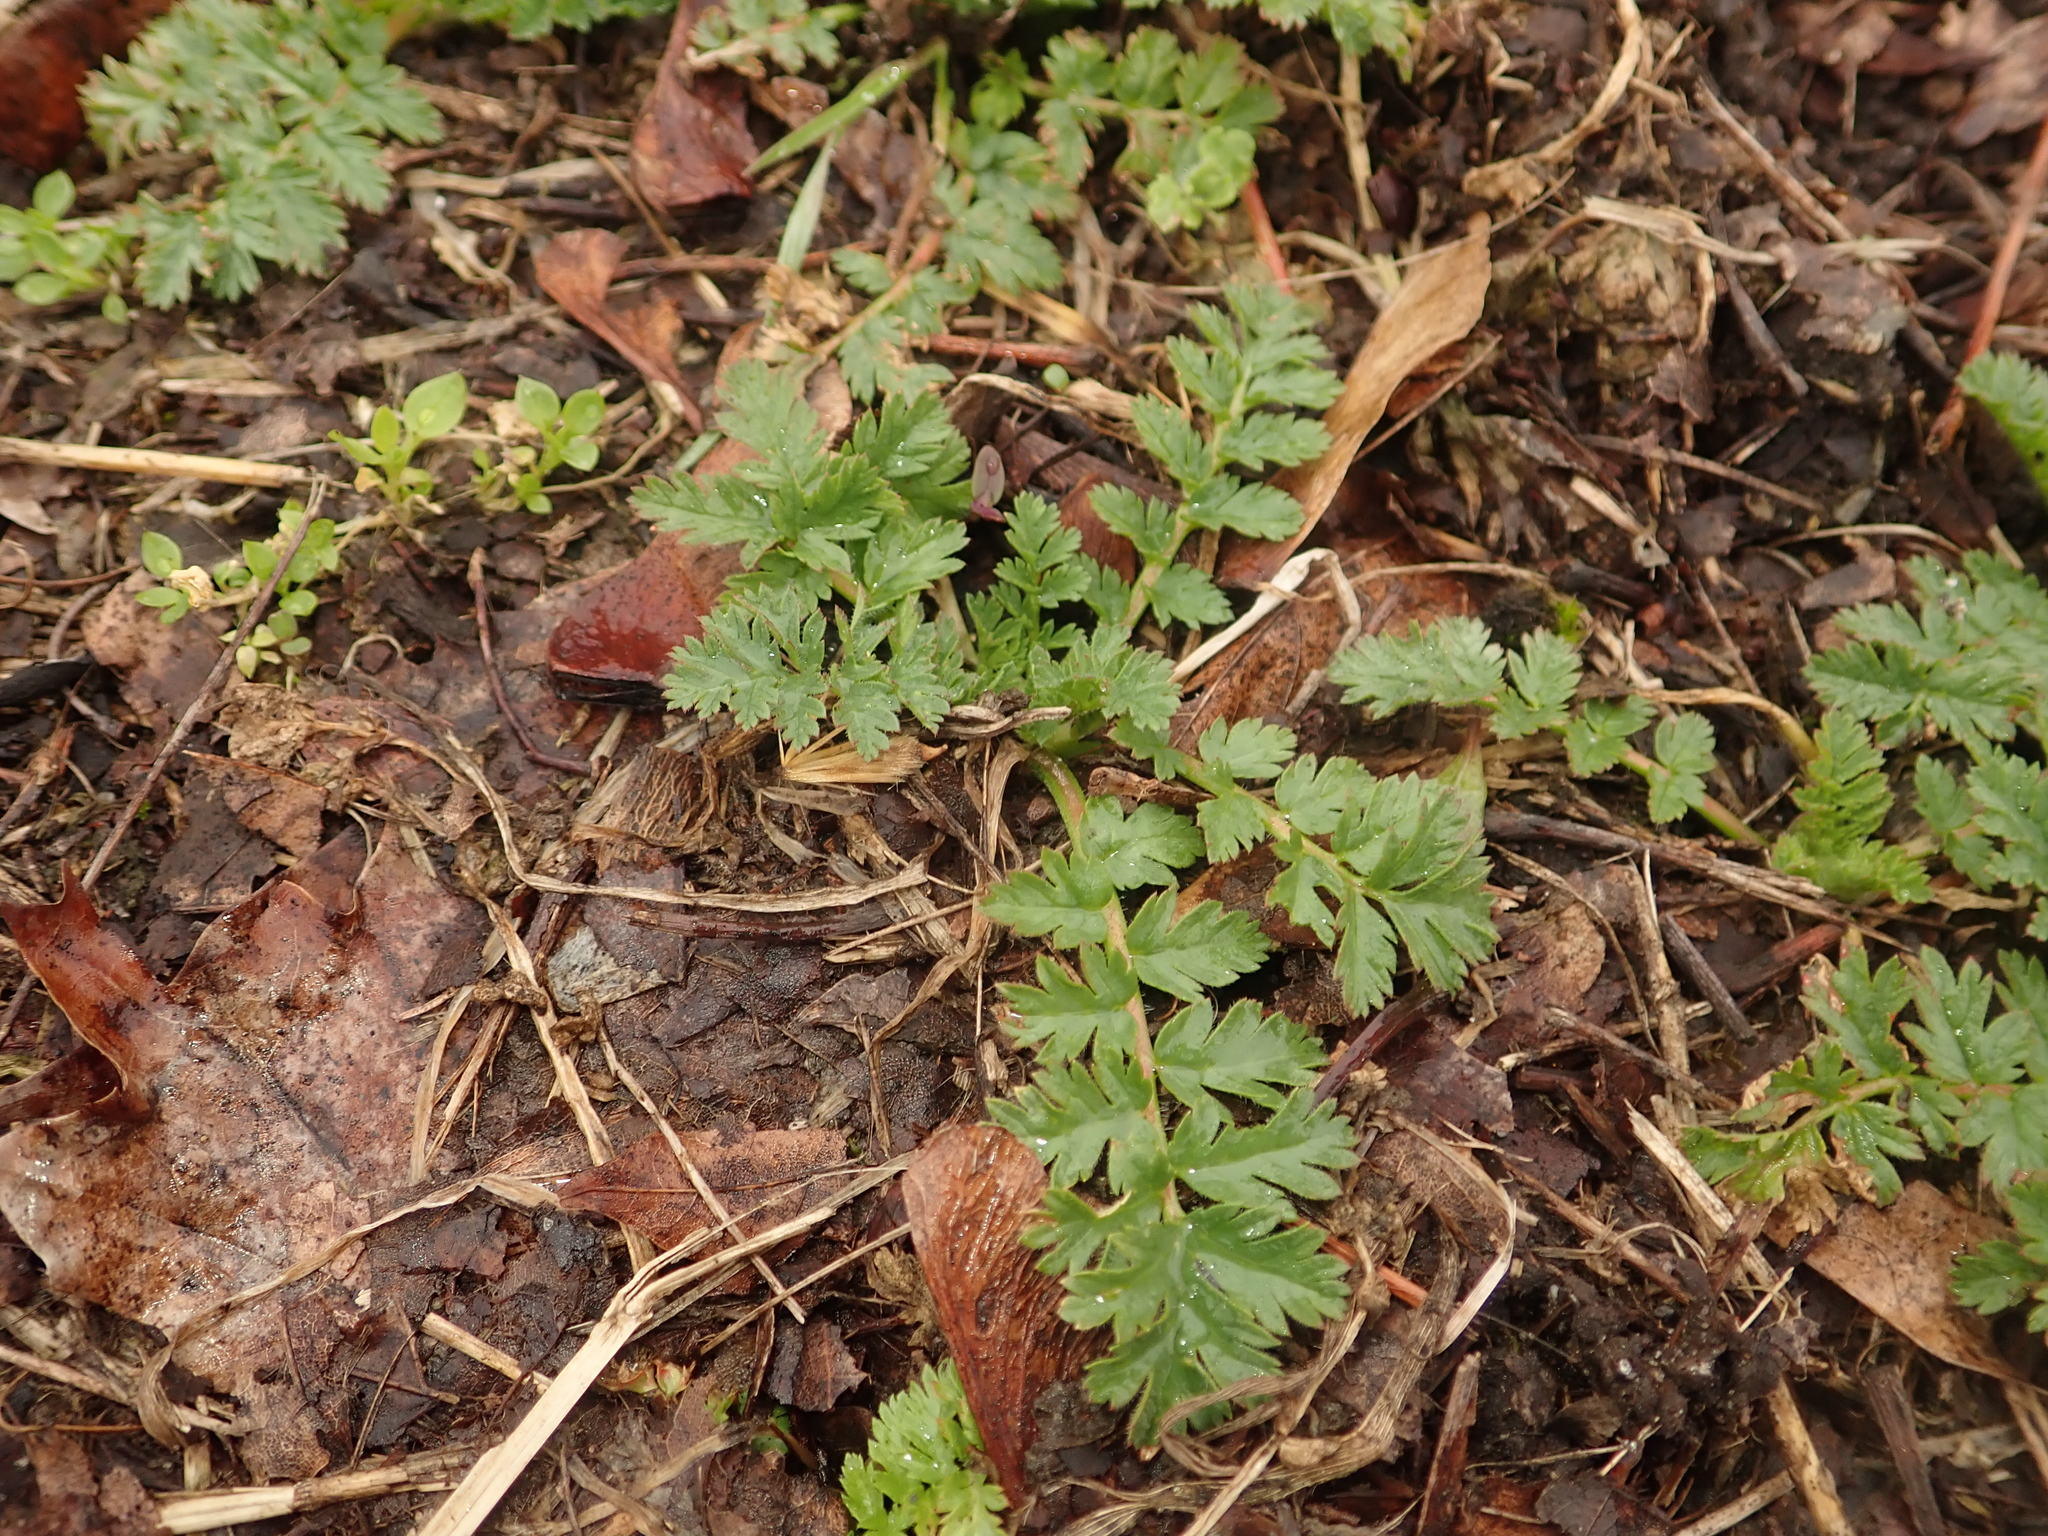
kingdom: Plantae
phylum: Tracheophyta
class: Magnoliopsida
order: Geraniales
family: Geraniaceae
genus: Erodium
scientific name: Erodium cicutarium
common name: Common stork's-bill
